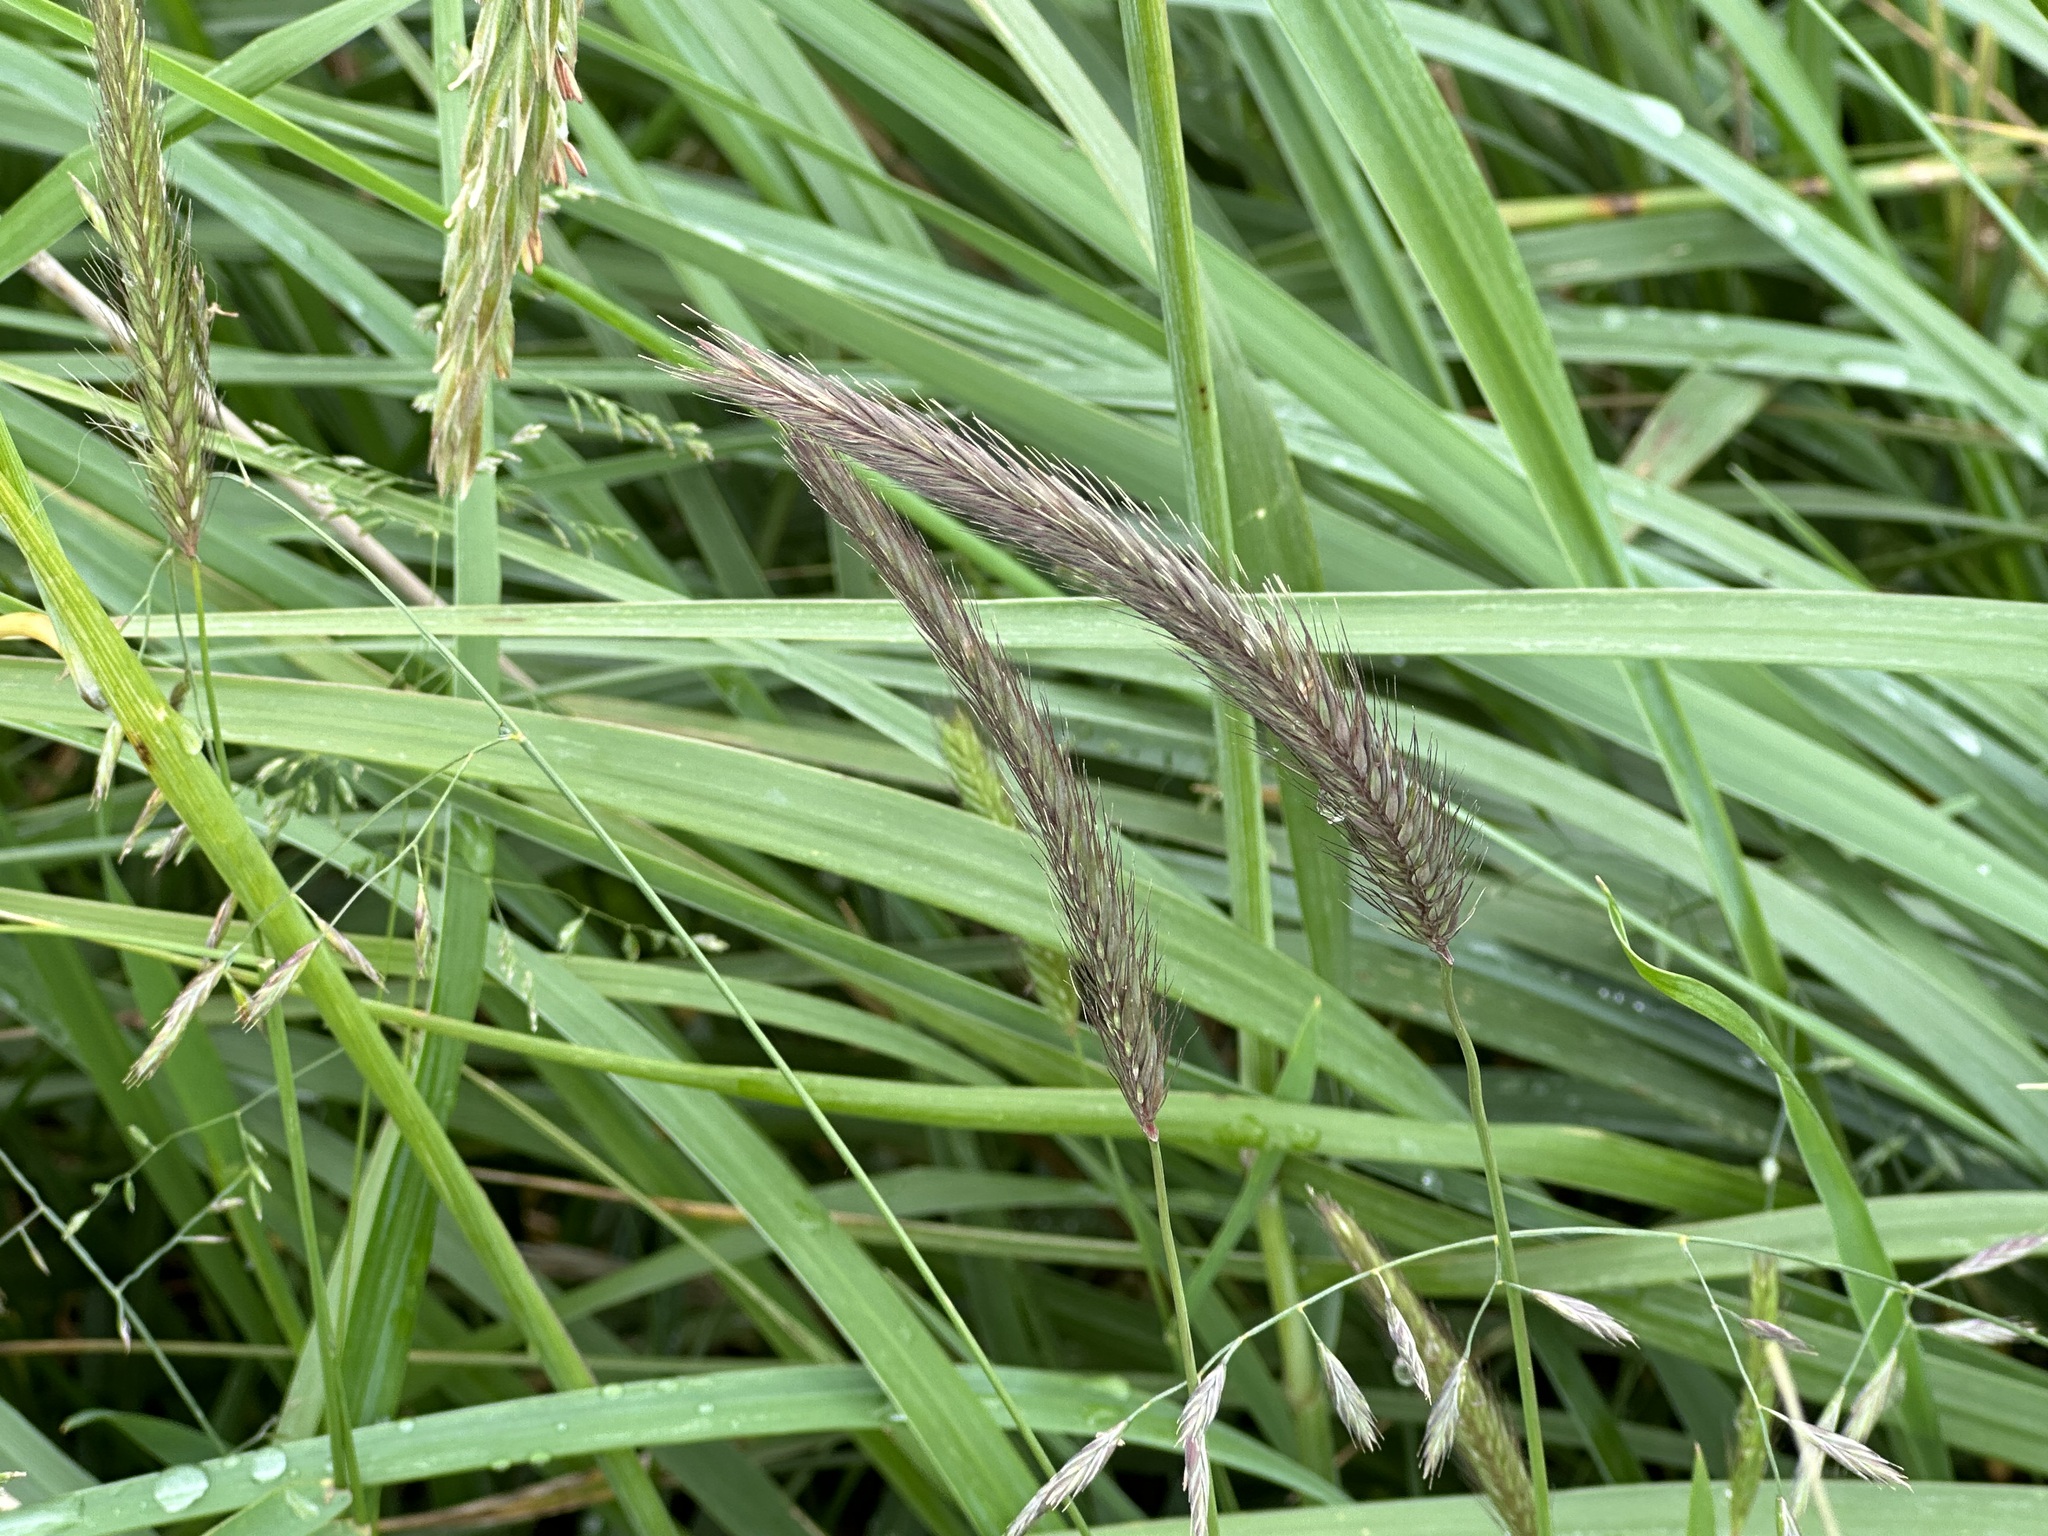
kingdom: Plantae
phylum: Tracheophyta
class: Liliopsida
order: Poales
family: Poaceae
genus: Hordeum
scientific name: Hordeum brachyantherum
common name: Meadow barley
